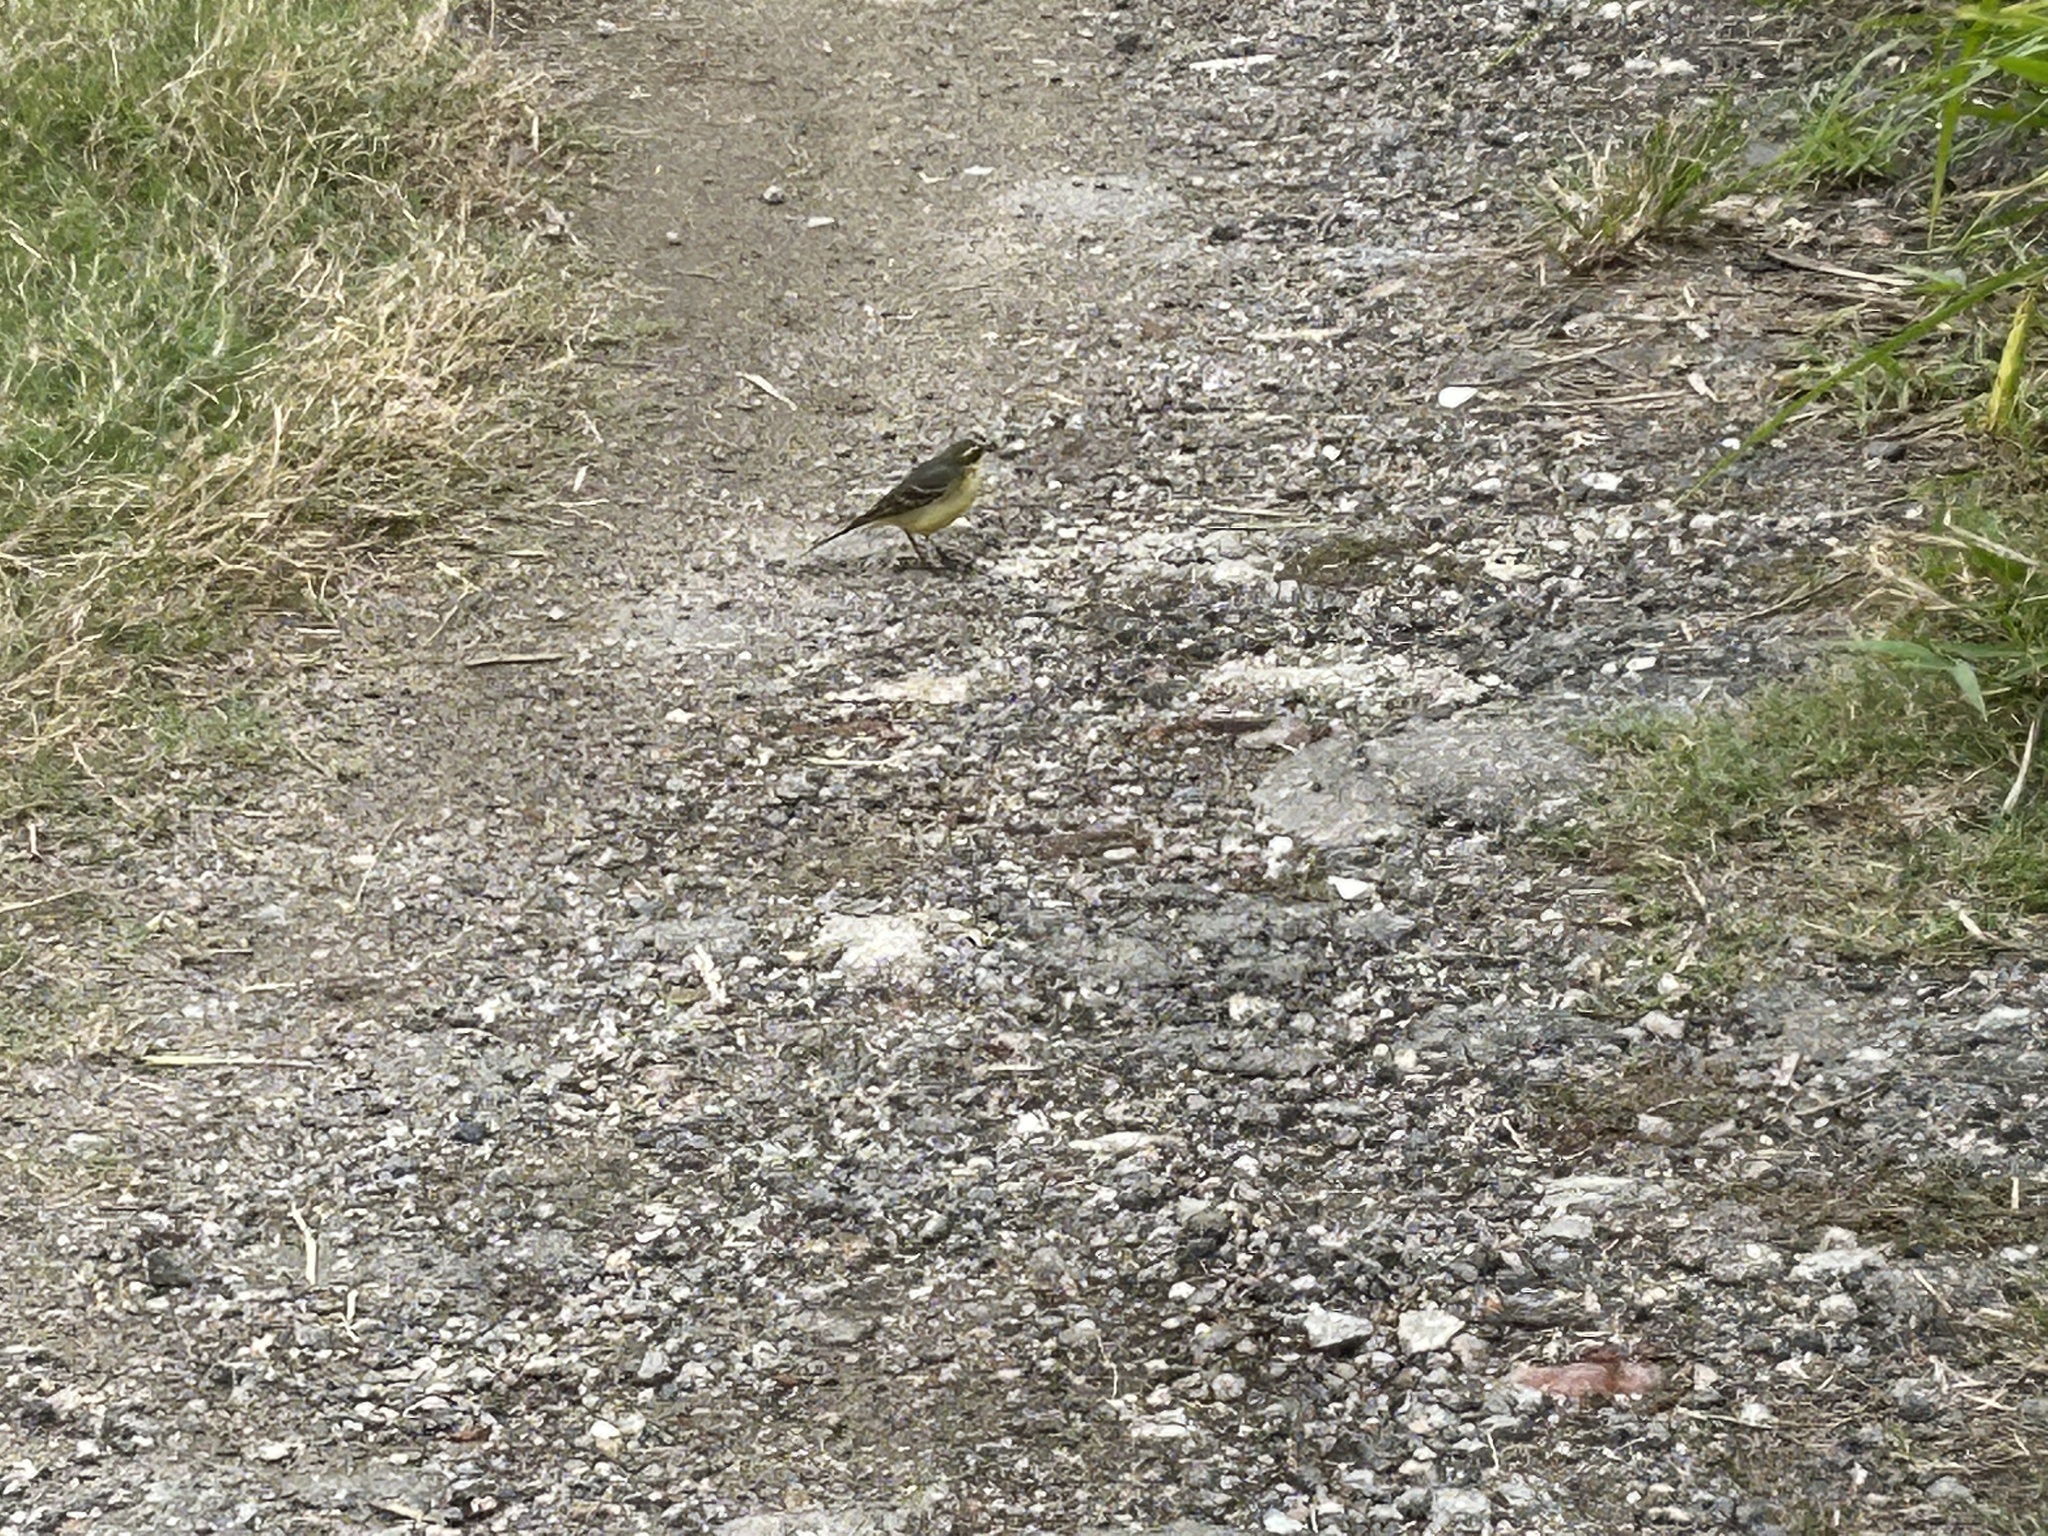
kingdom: Animalia
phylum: Chordata
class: Aves
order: Passeriformes
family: Motacillidae
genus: Motacilla
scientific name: Motacilla tschutschensis
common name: Eastern yellow wagtail
